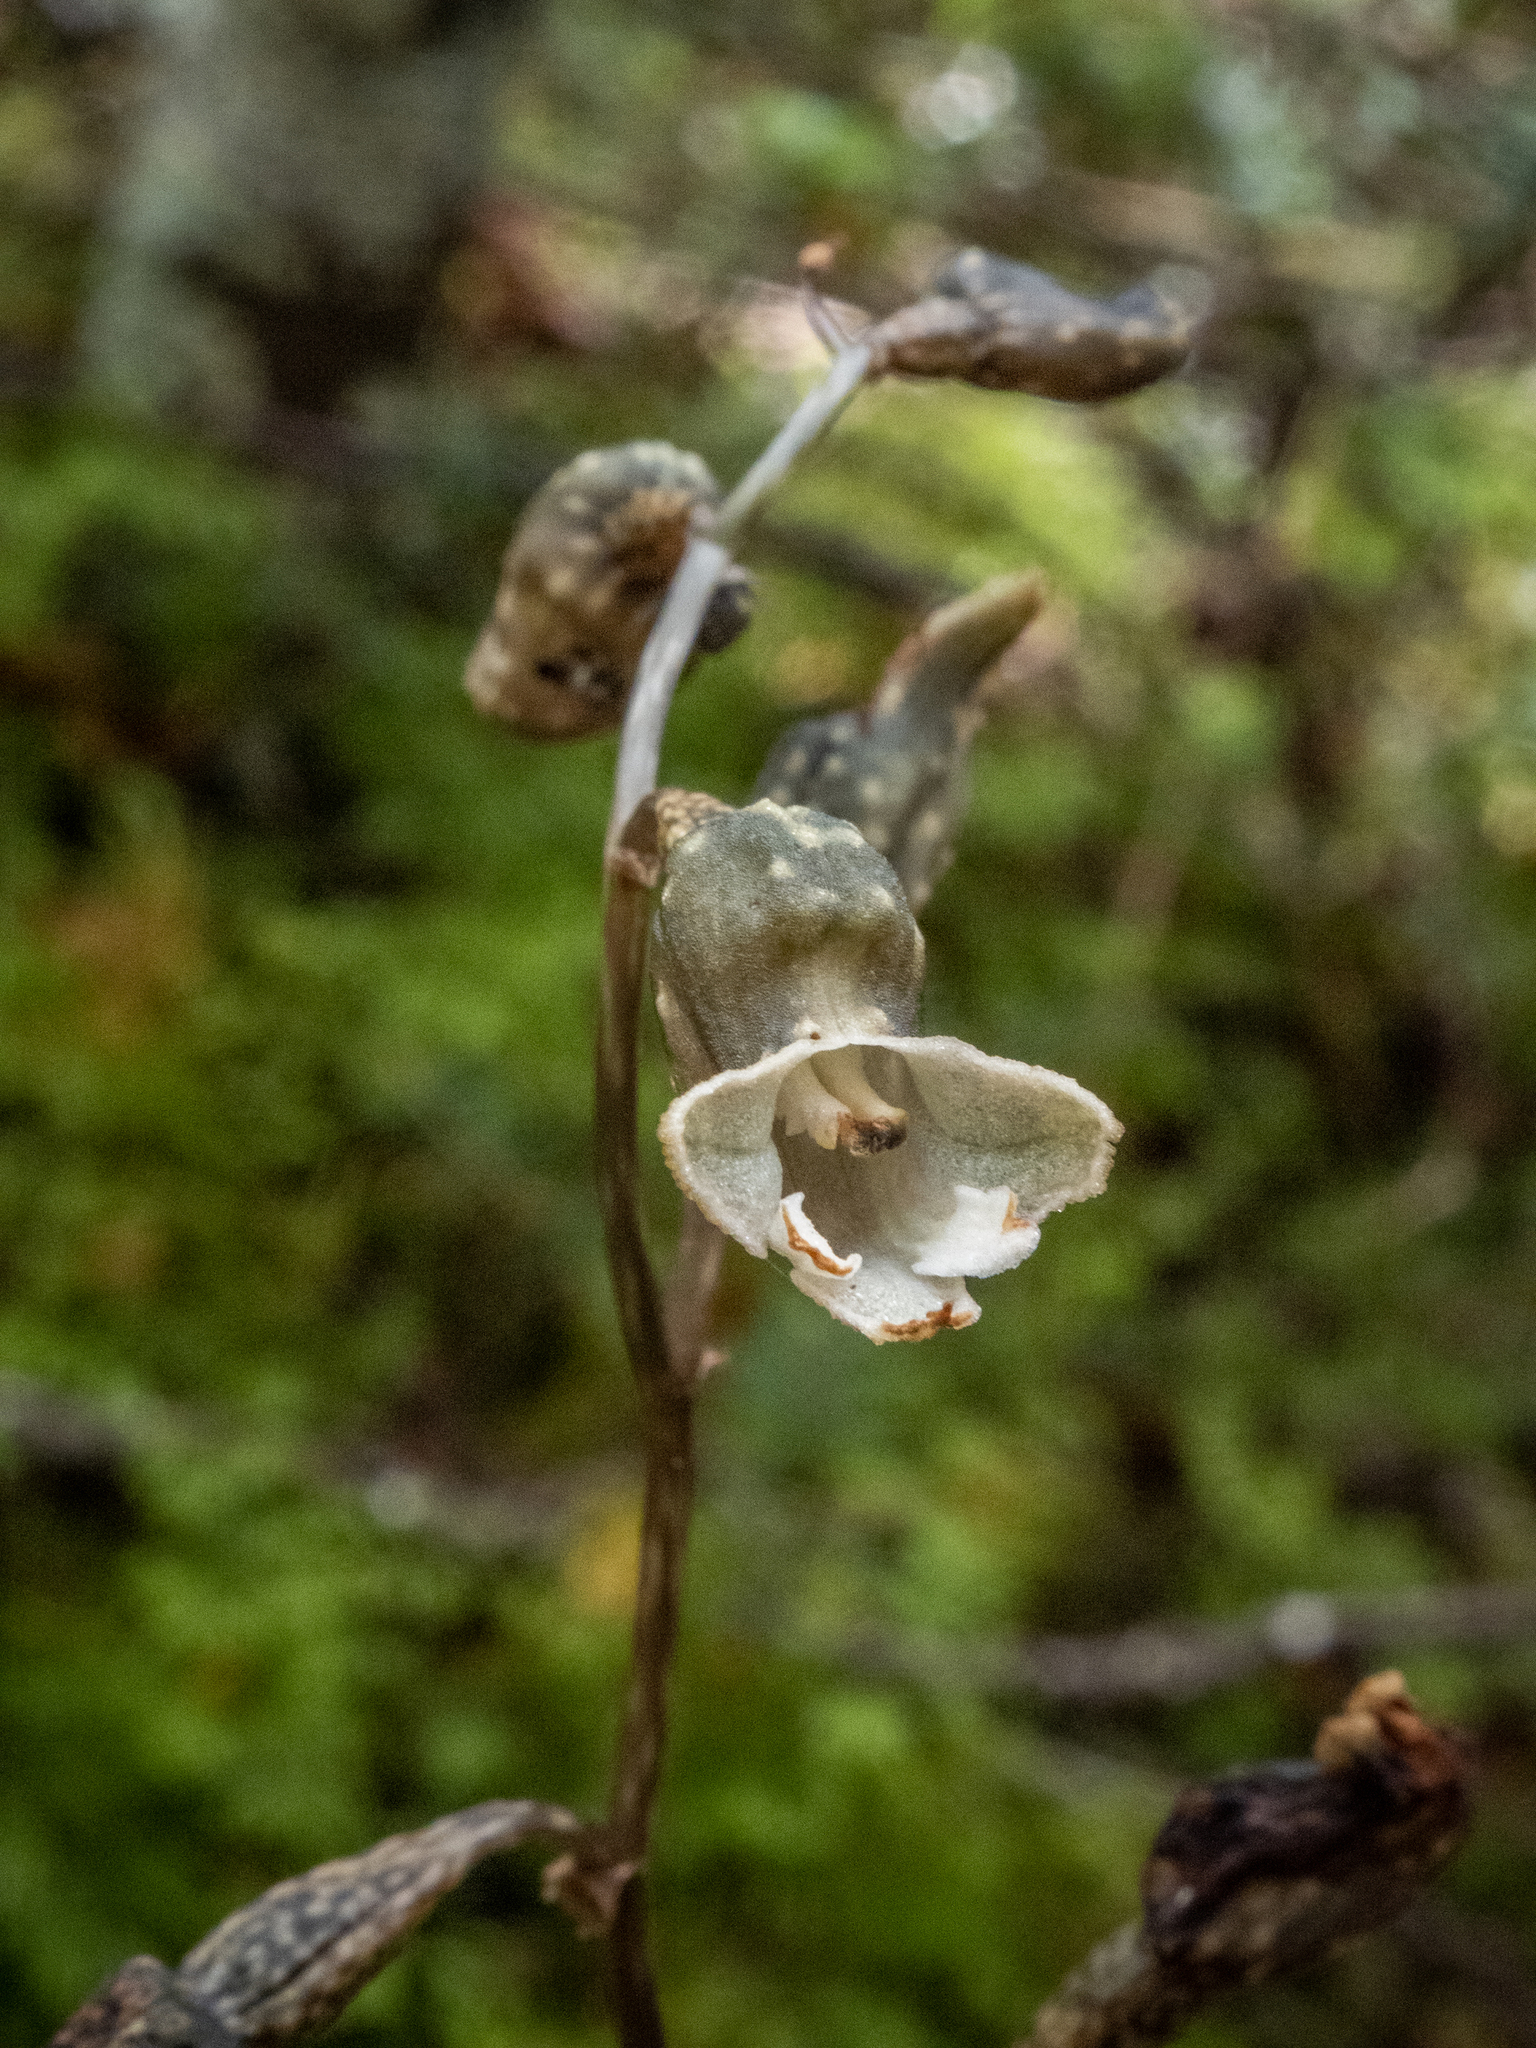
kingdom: Plantae
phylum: Tracheophyta
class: Liliopsida
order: Asparagales
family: Orchidaceae
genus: Gastrodia
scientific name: Gastrodia cunninghamii
